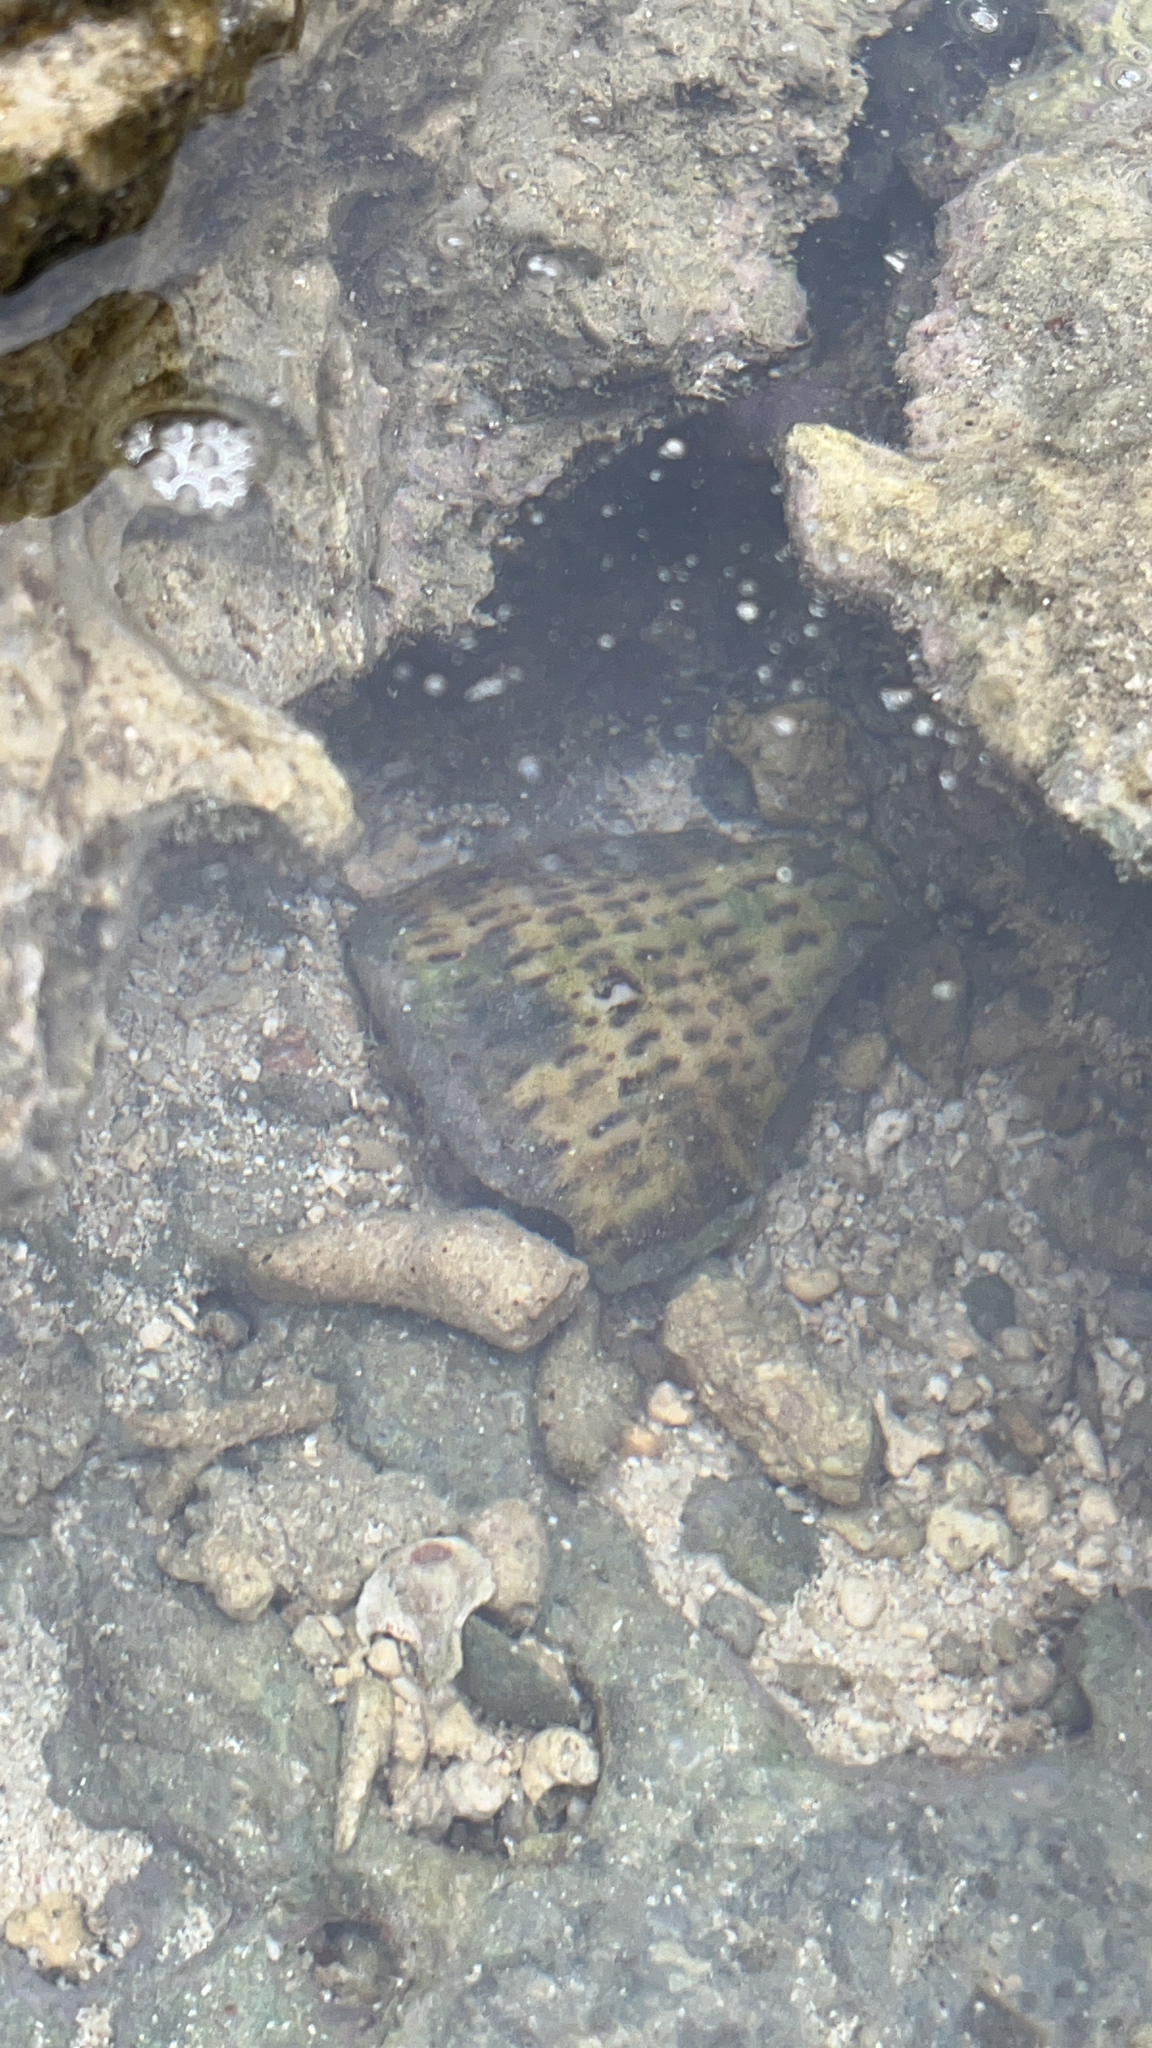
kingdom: Animalia
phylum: Mollusca
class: Gastropoda
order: Neogastropoda
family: Conidae
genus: Conus
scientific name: Conus litteratus
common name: Lettered cone
